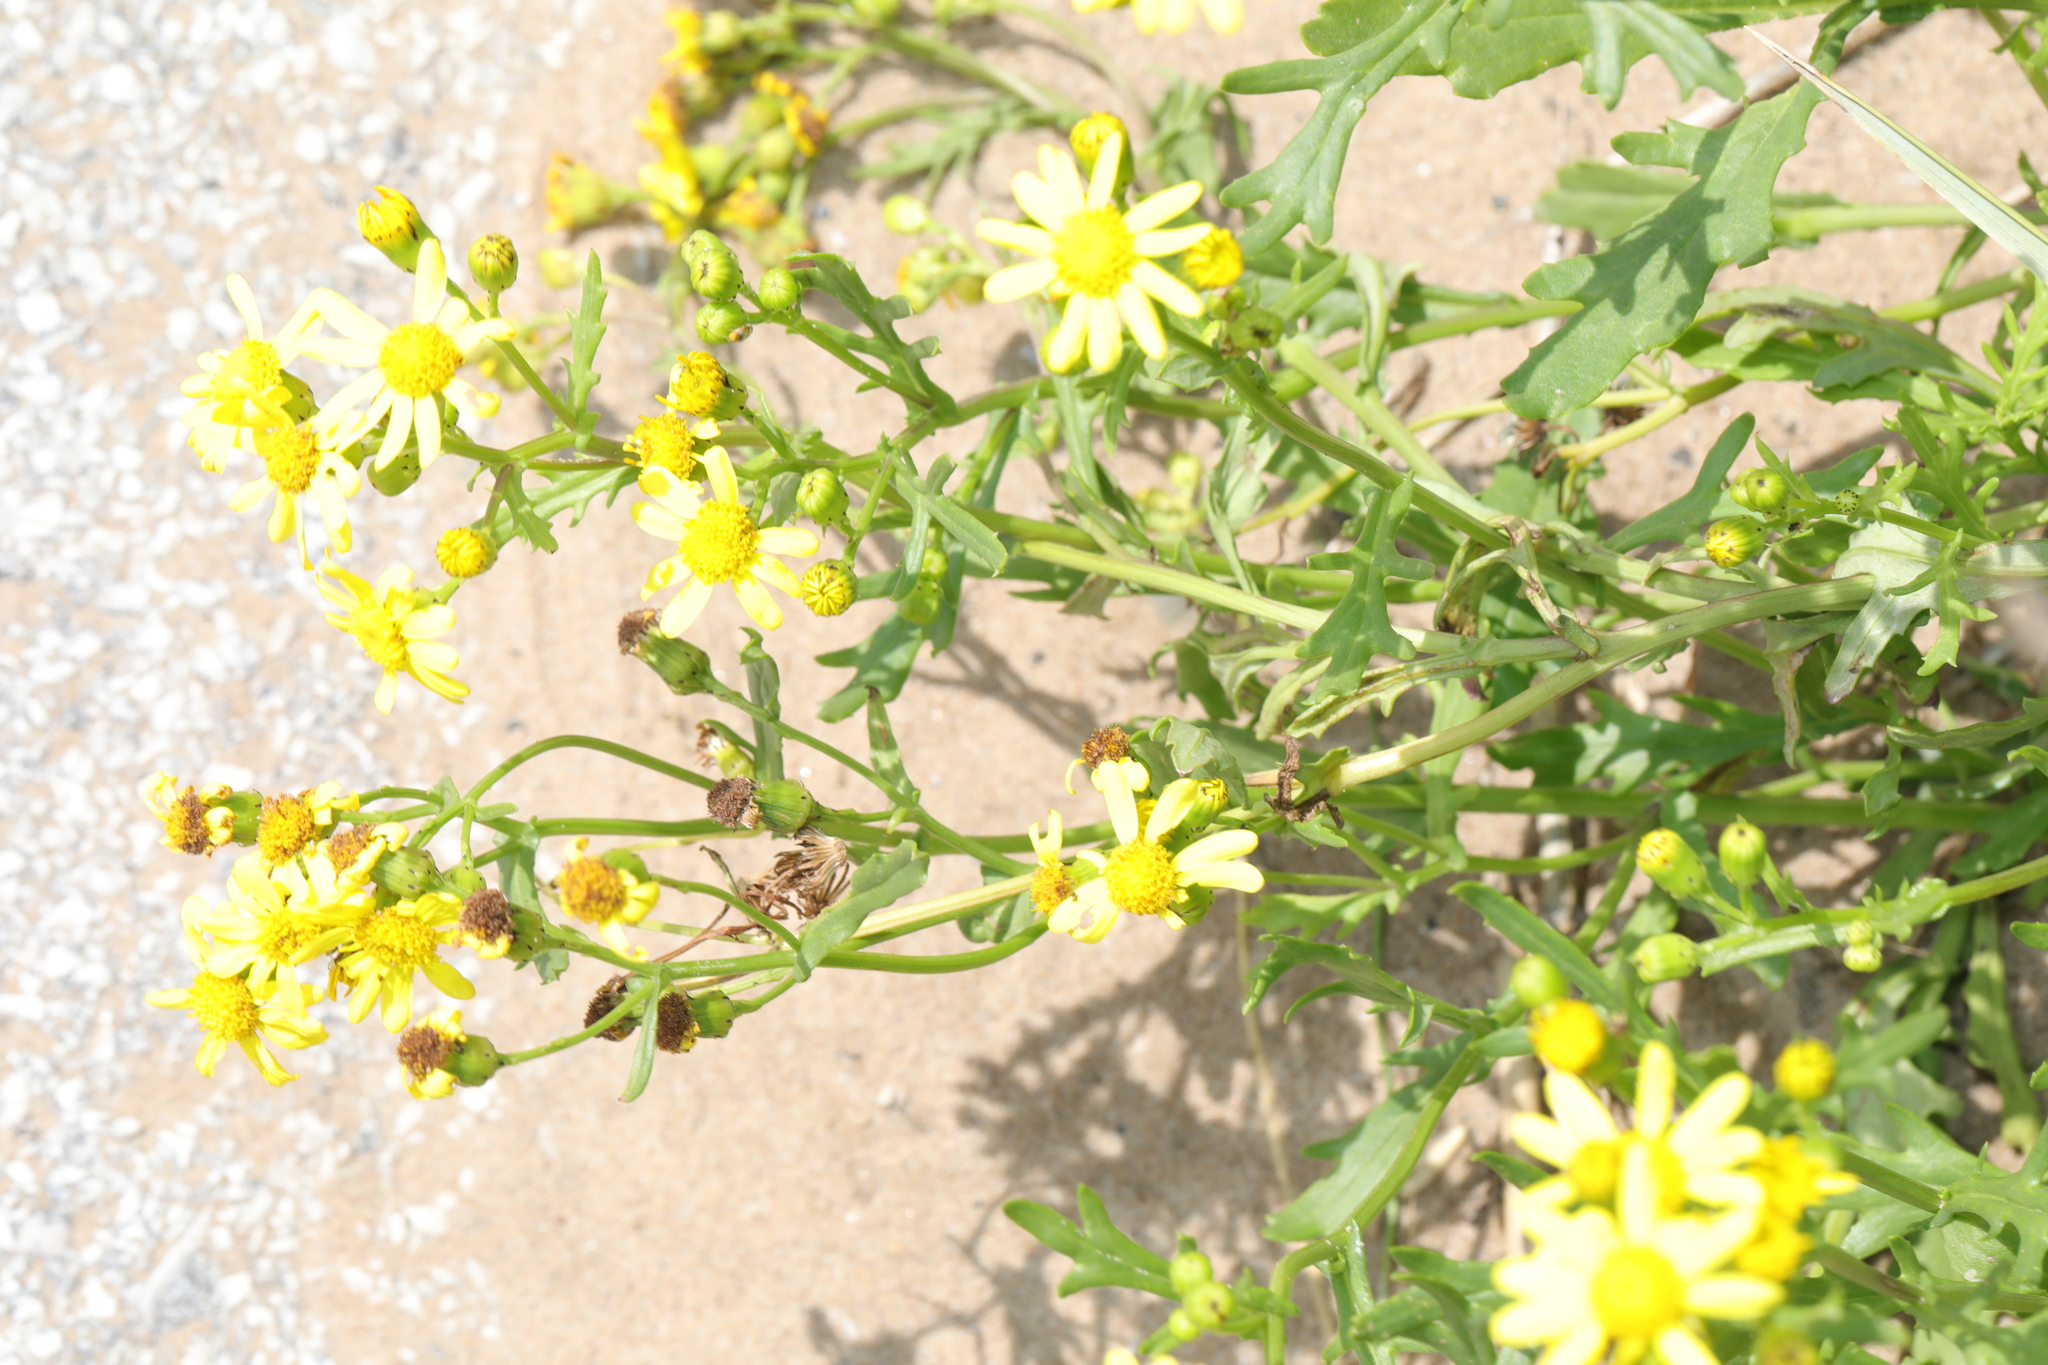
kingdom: Plantae
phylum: Tracheophyta
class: Magnoliopsida
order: Asterales
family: Asteraceae
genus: Senecio
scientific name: Senecio squalidus
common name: Oxford ragwort
